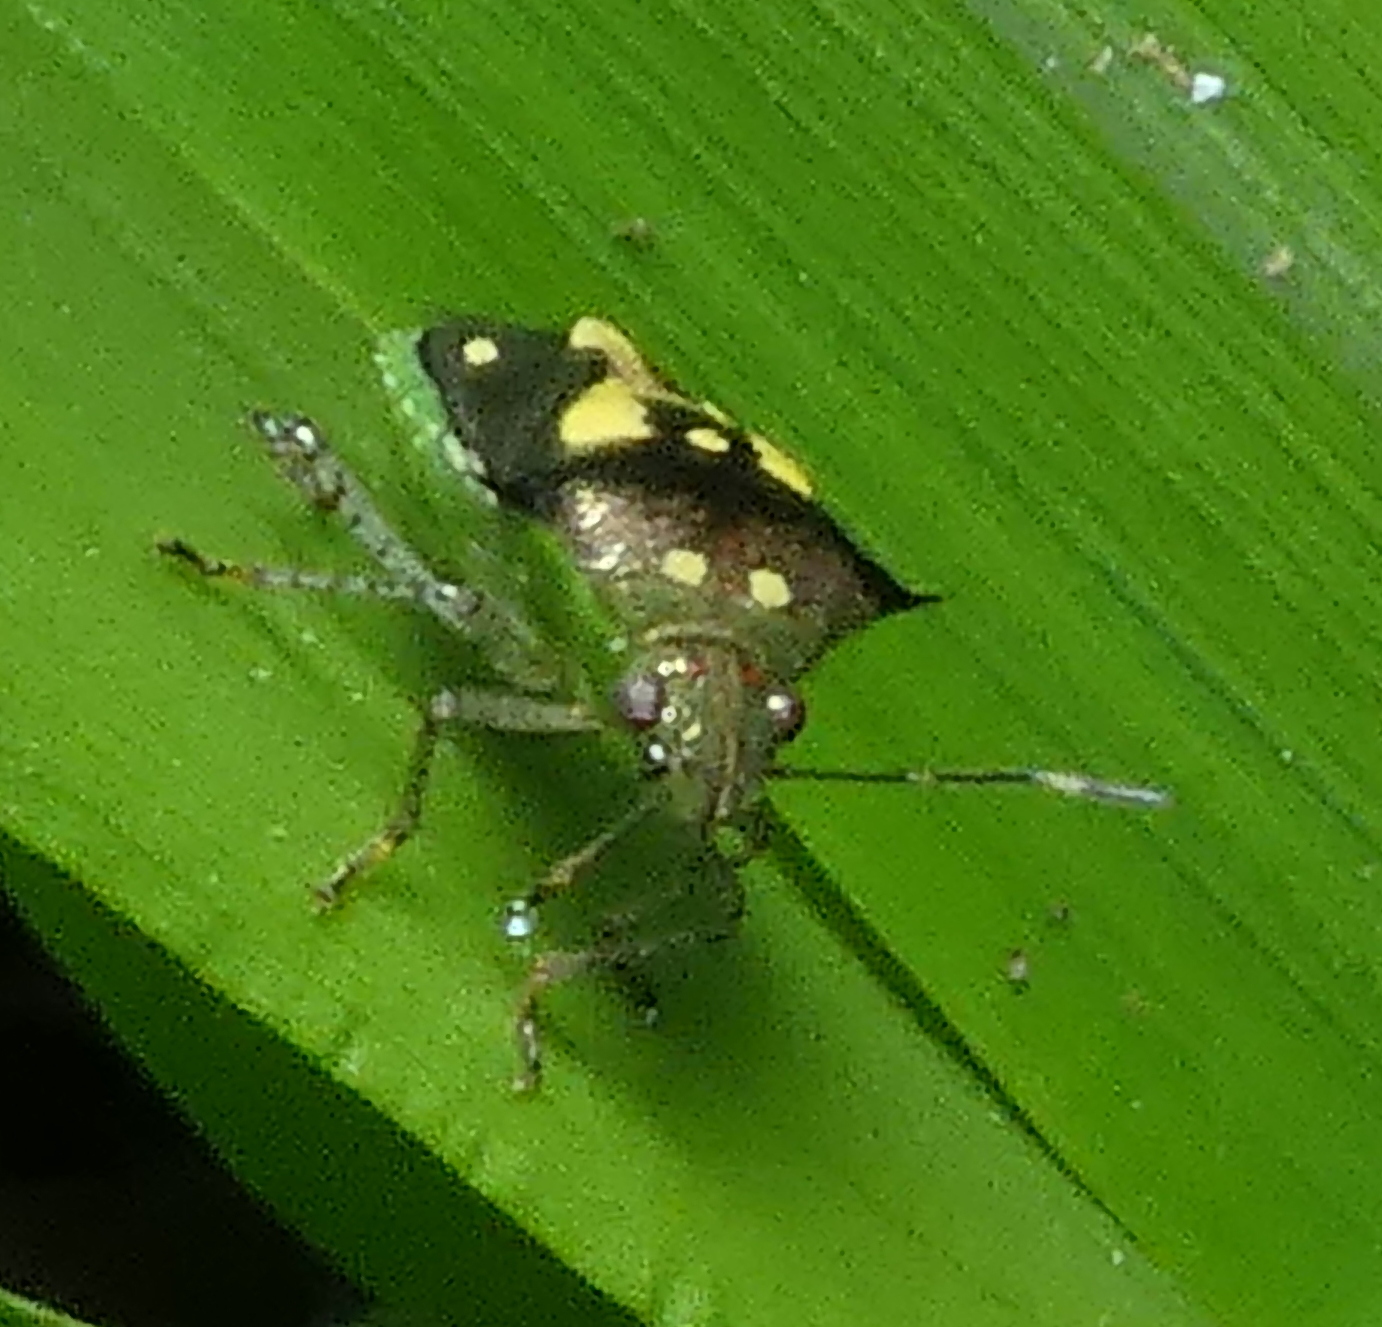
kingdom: Animalia
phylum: Arthropoda
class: Insecta
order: Hemiptera
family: Pentatomidae
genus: Mormidea
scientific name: Mormidea ypsilon
